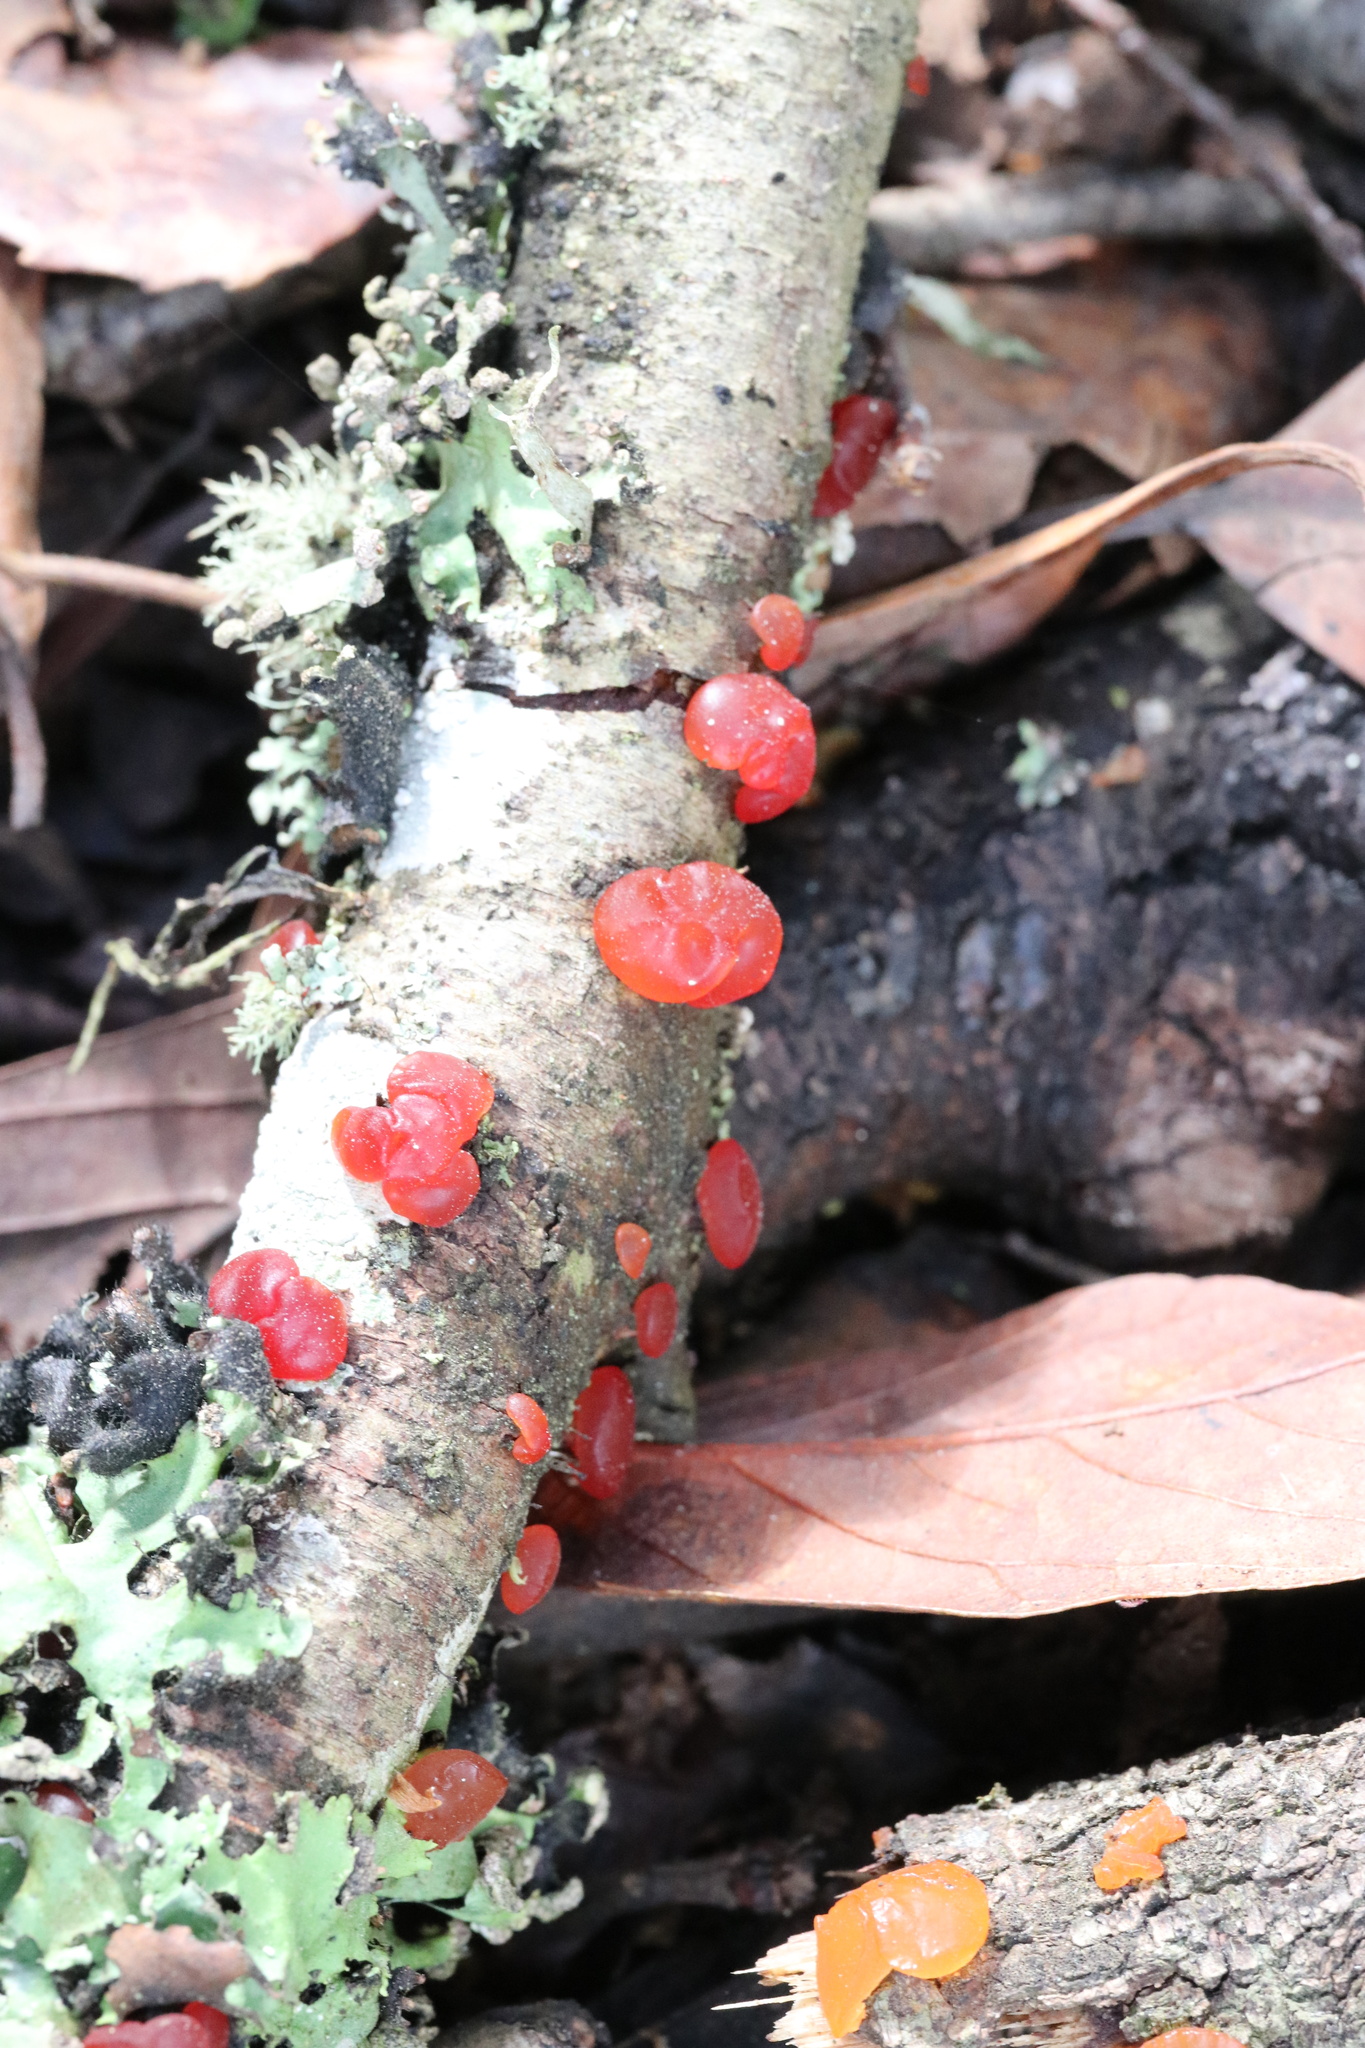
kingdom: Fungi
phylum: Basidiomycota
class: Dacrymycetes
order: Dacrymycetales
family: Dacrymycetaceae
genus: Guepiniopsis
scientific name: Guepiniopsis alpina
